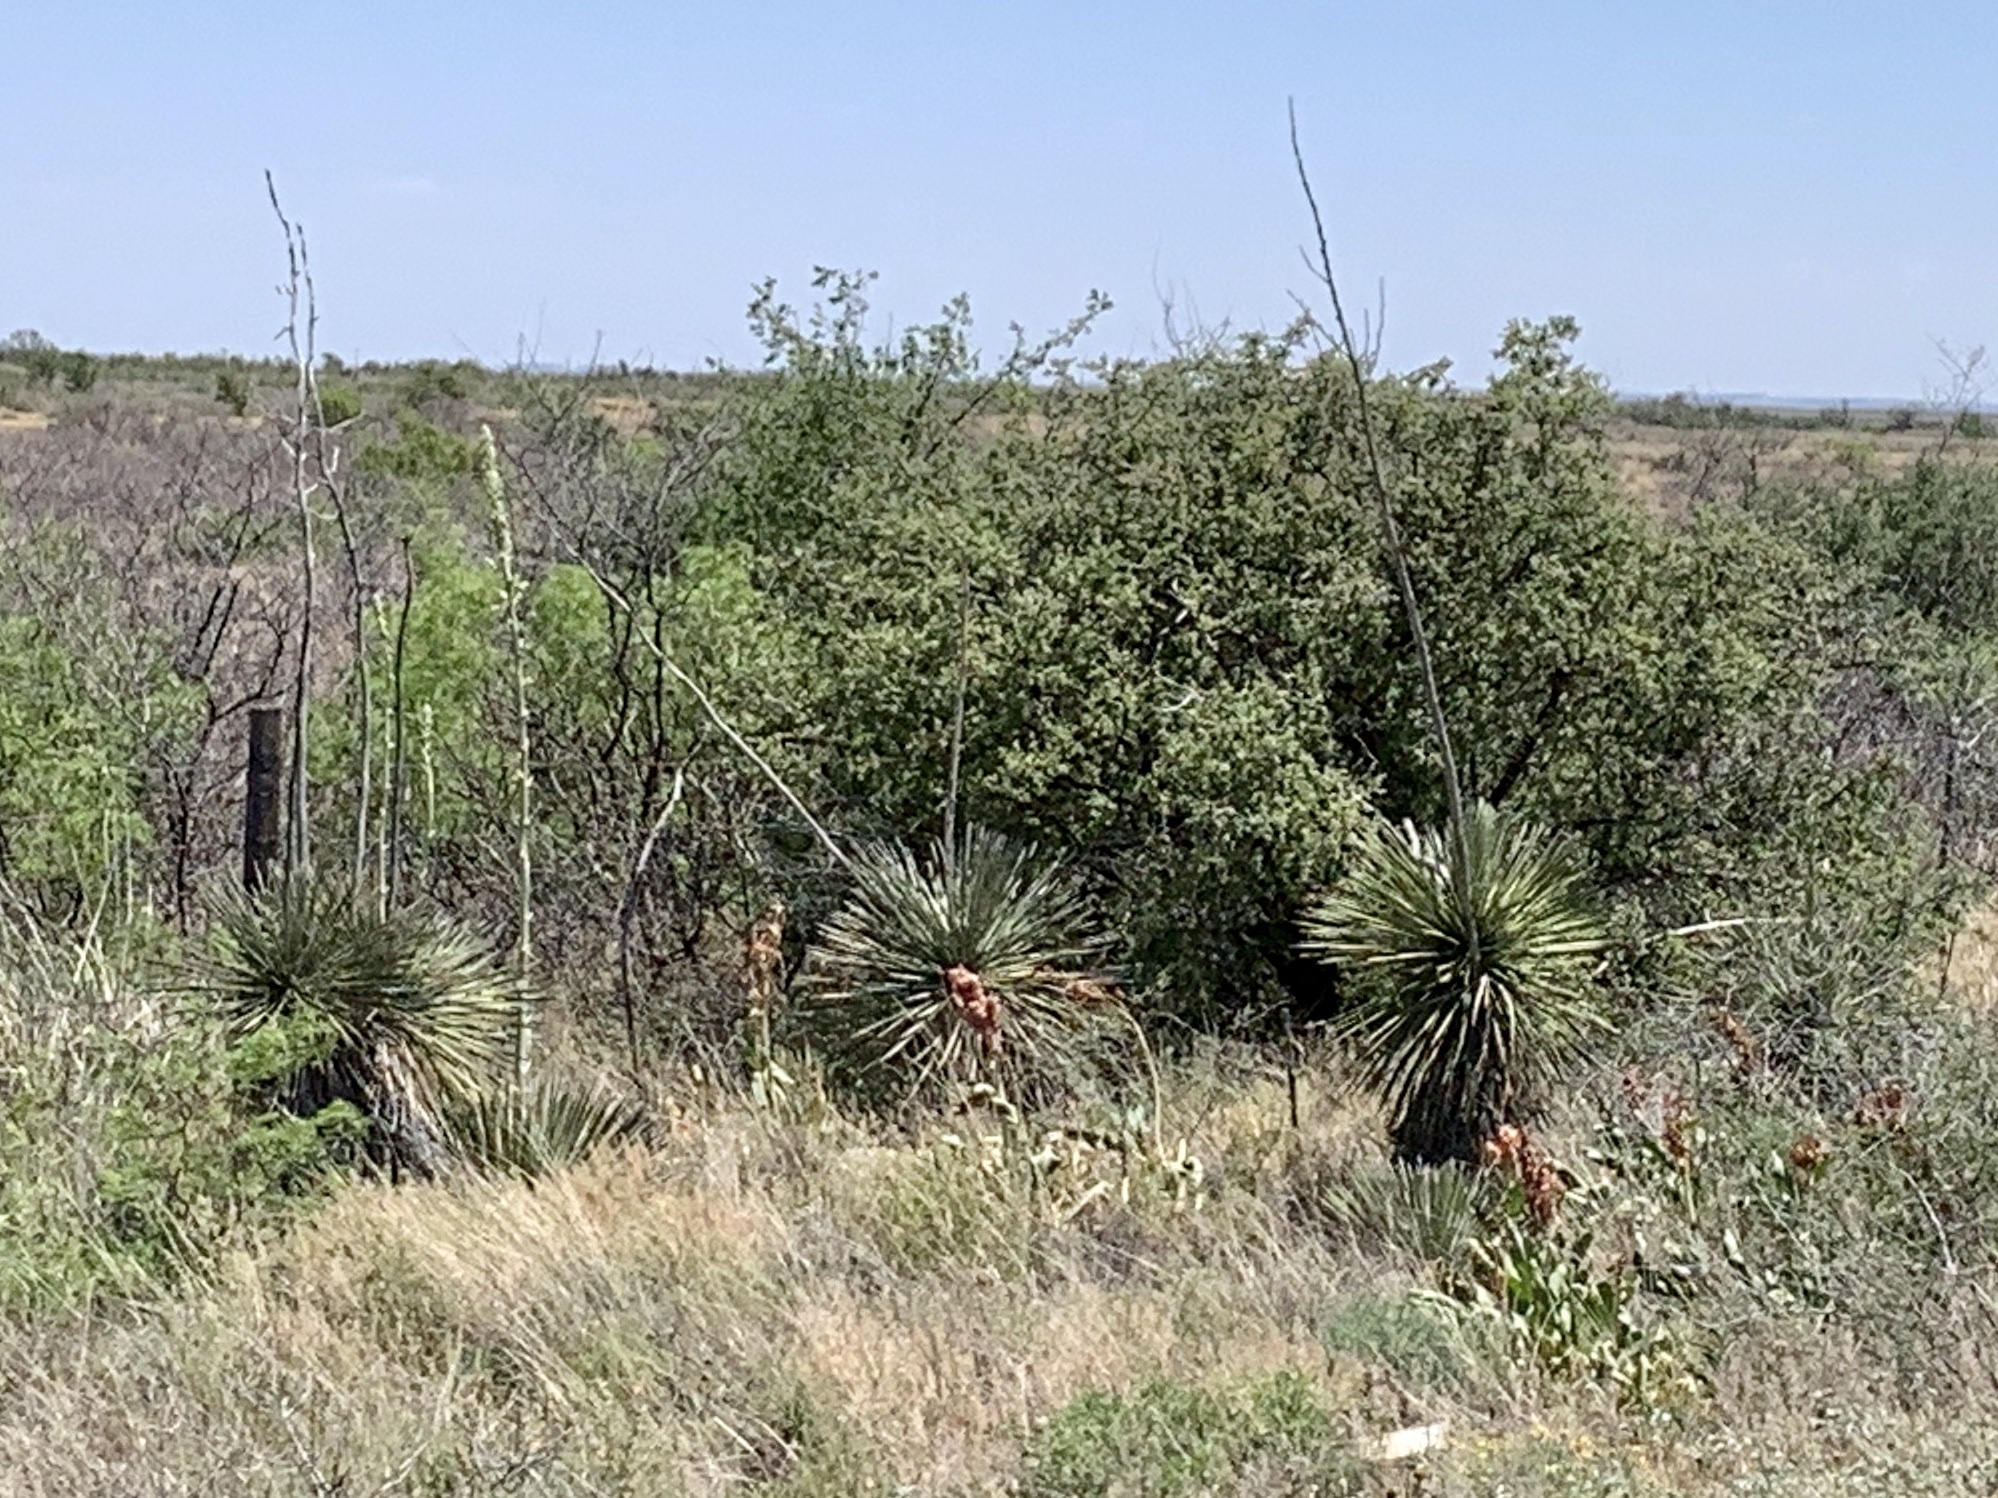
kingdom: Plantae
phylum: Tracheophyta
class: Liliopsida
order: Asparagales
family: Asparagaceae
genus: Yucca
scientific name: Yucca elata
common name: Palmella
